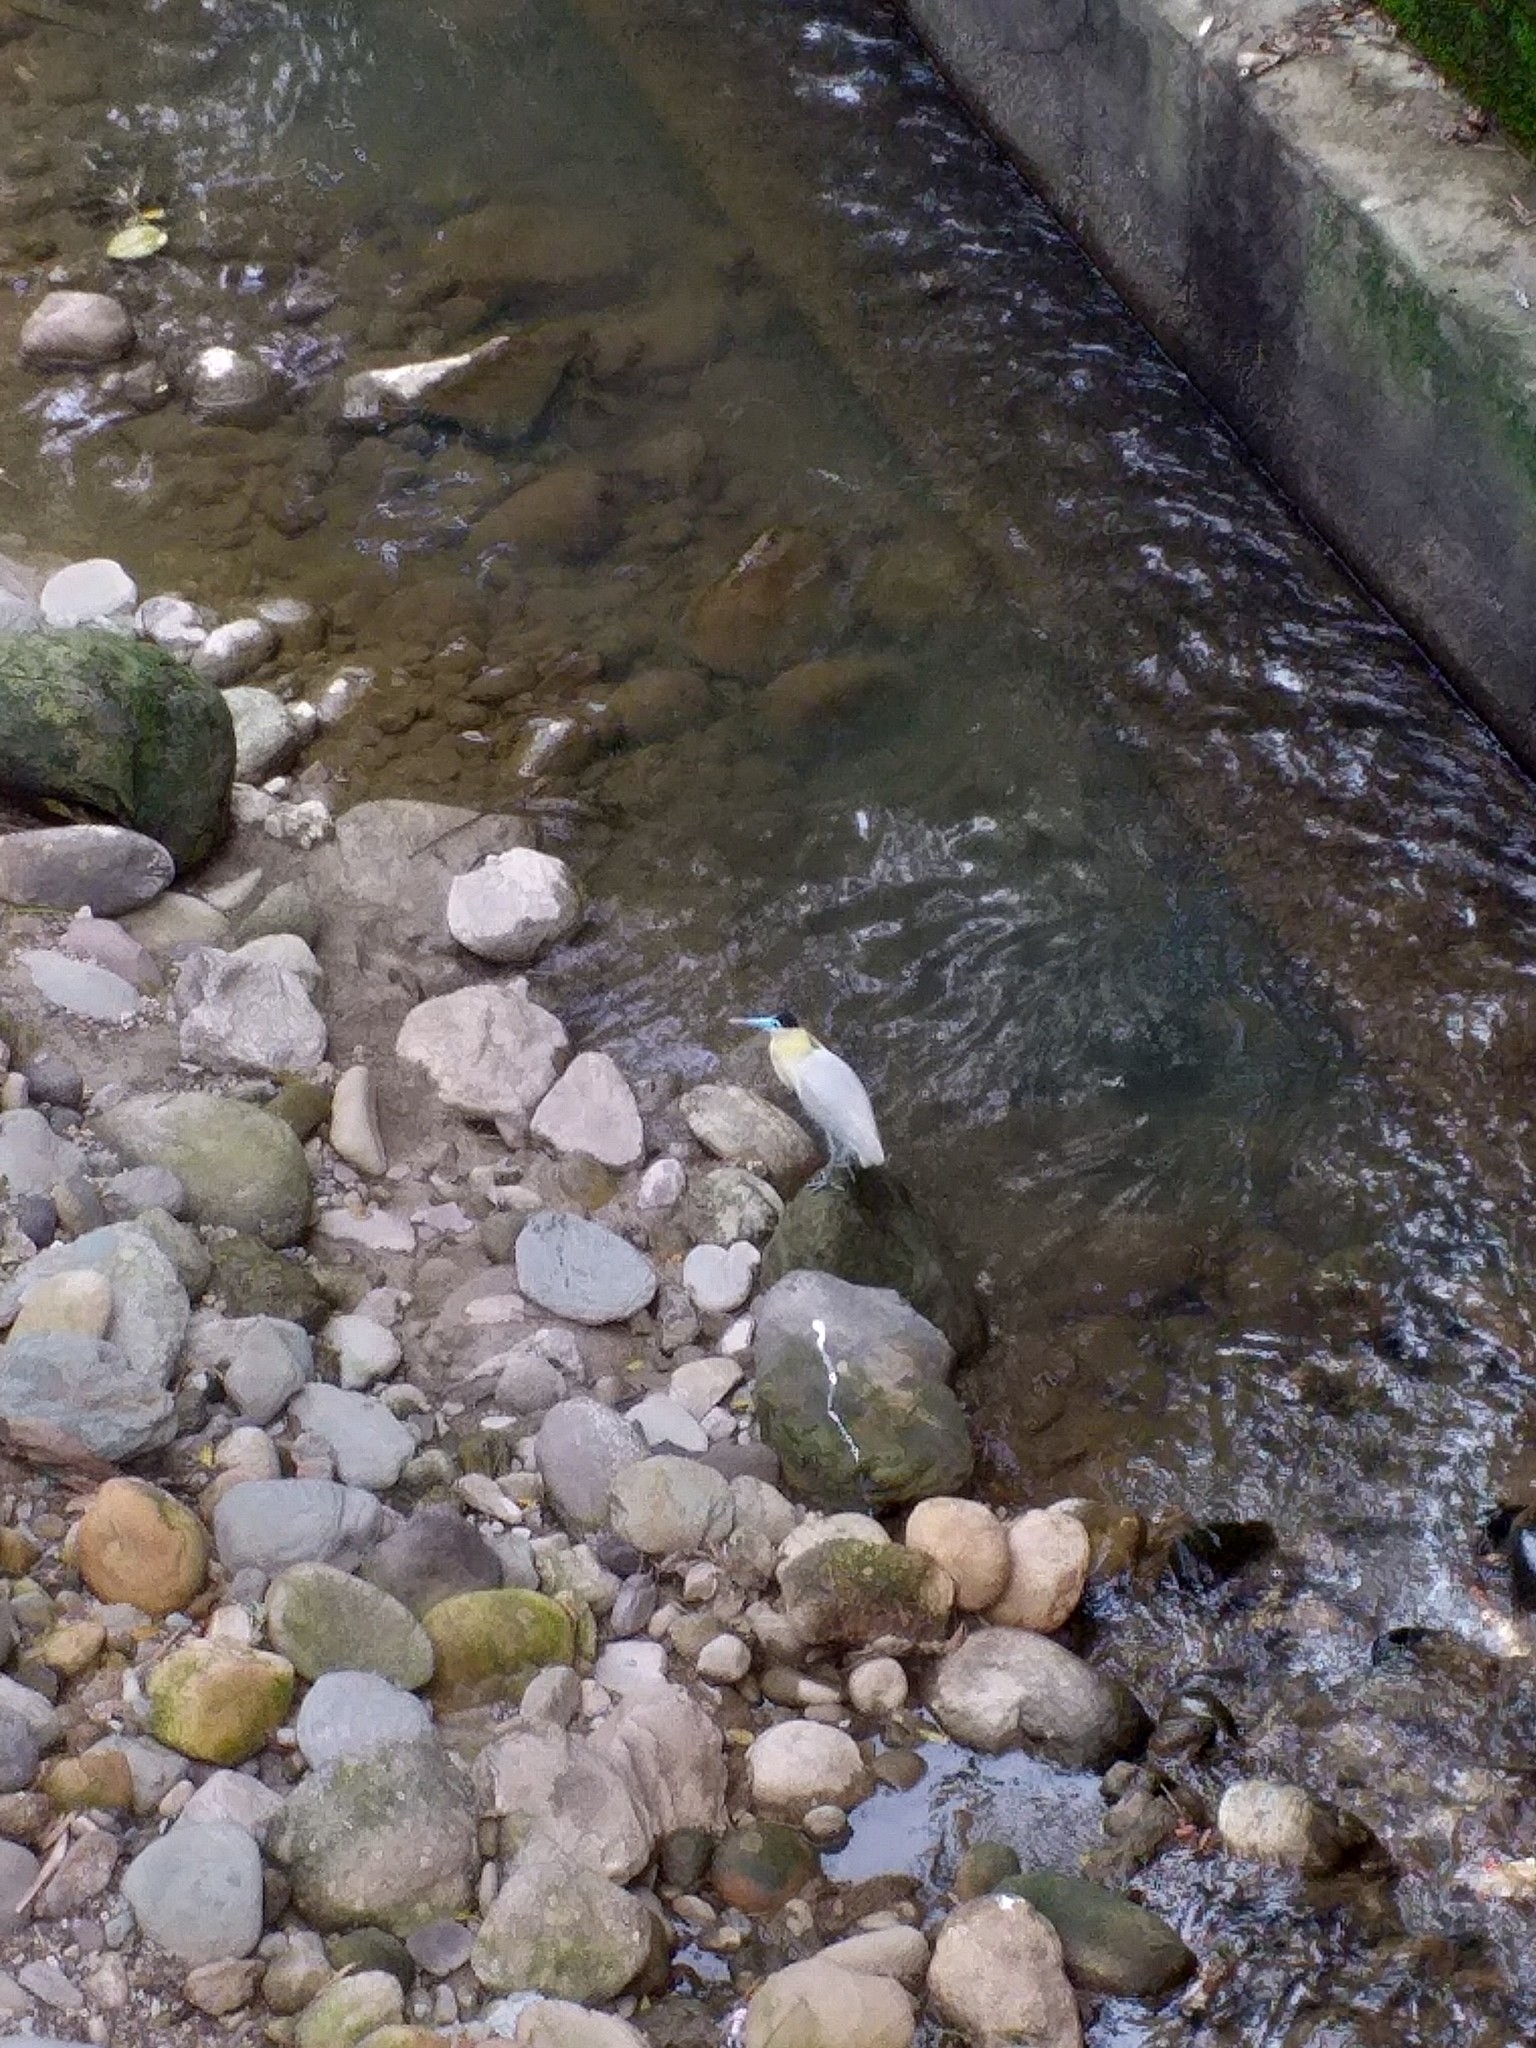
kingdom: Animalia
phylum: Chordata
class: Aves
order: Pelecaniformes
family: Ardeidae
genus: Pilherodius
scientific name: Pilherodius pileatus
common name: Capped heron
